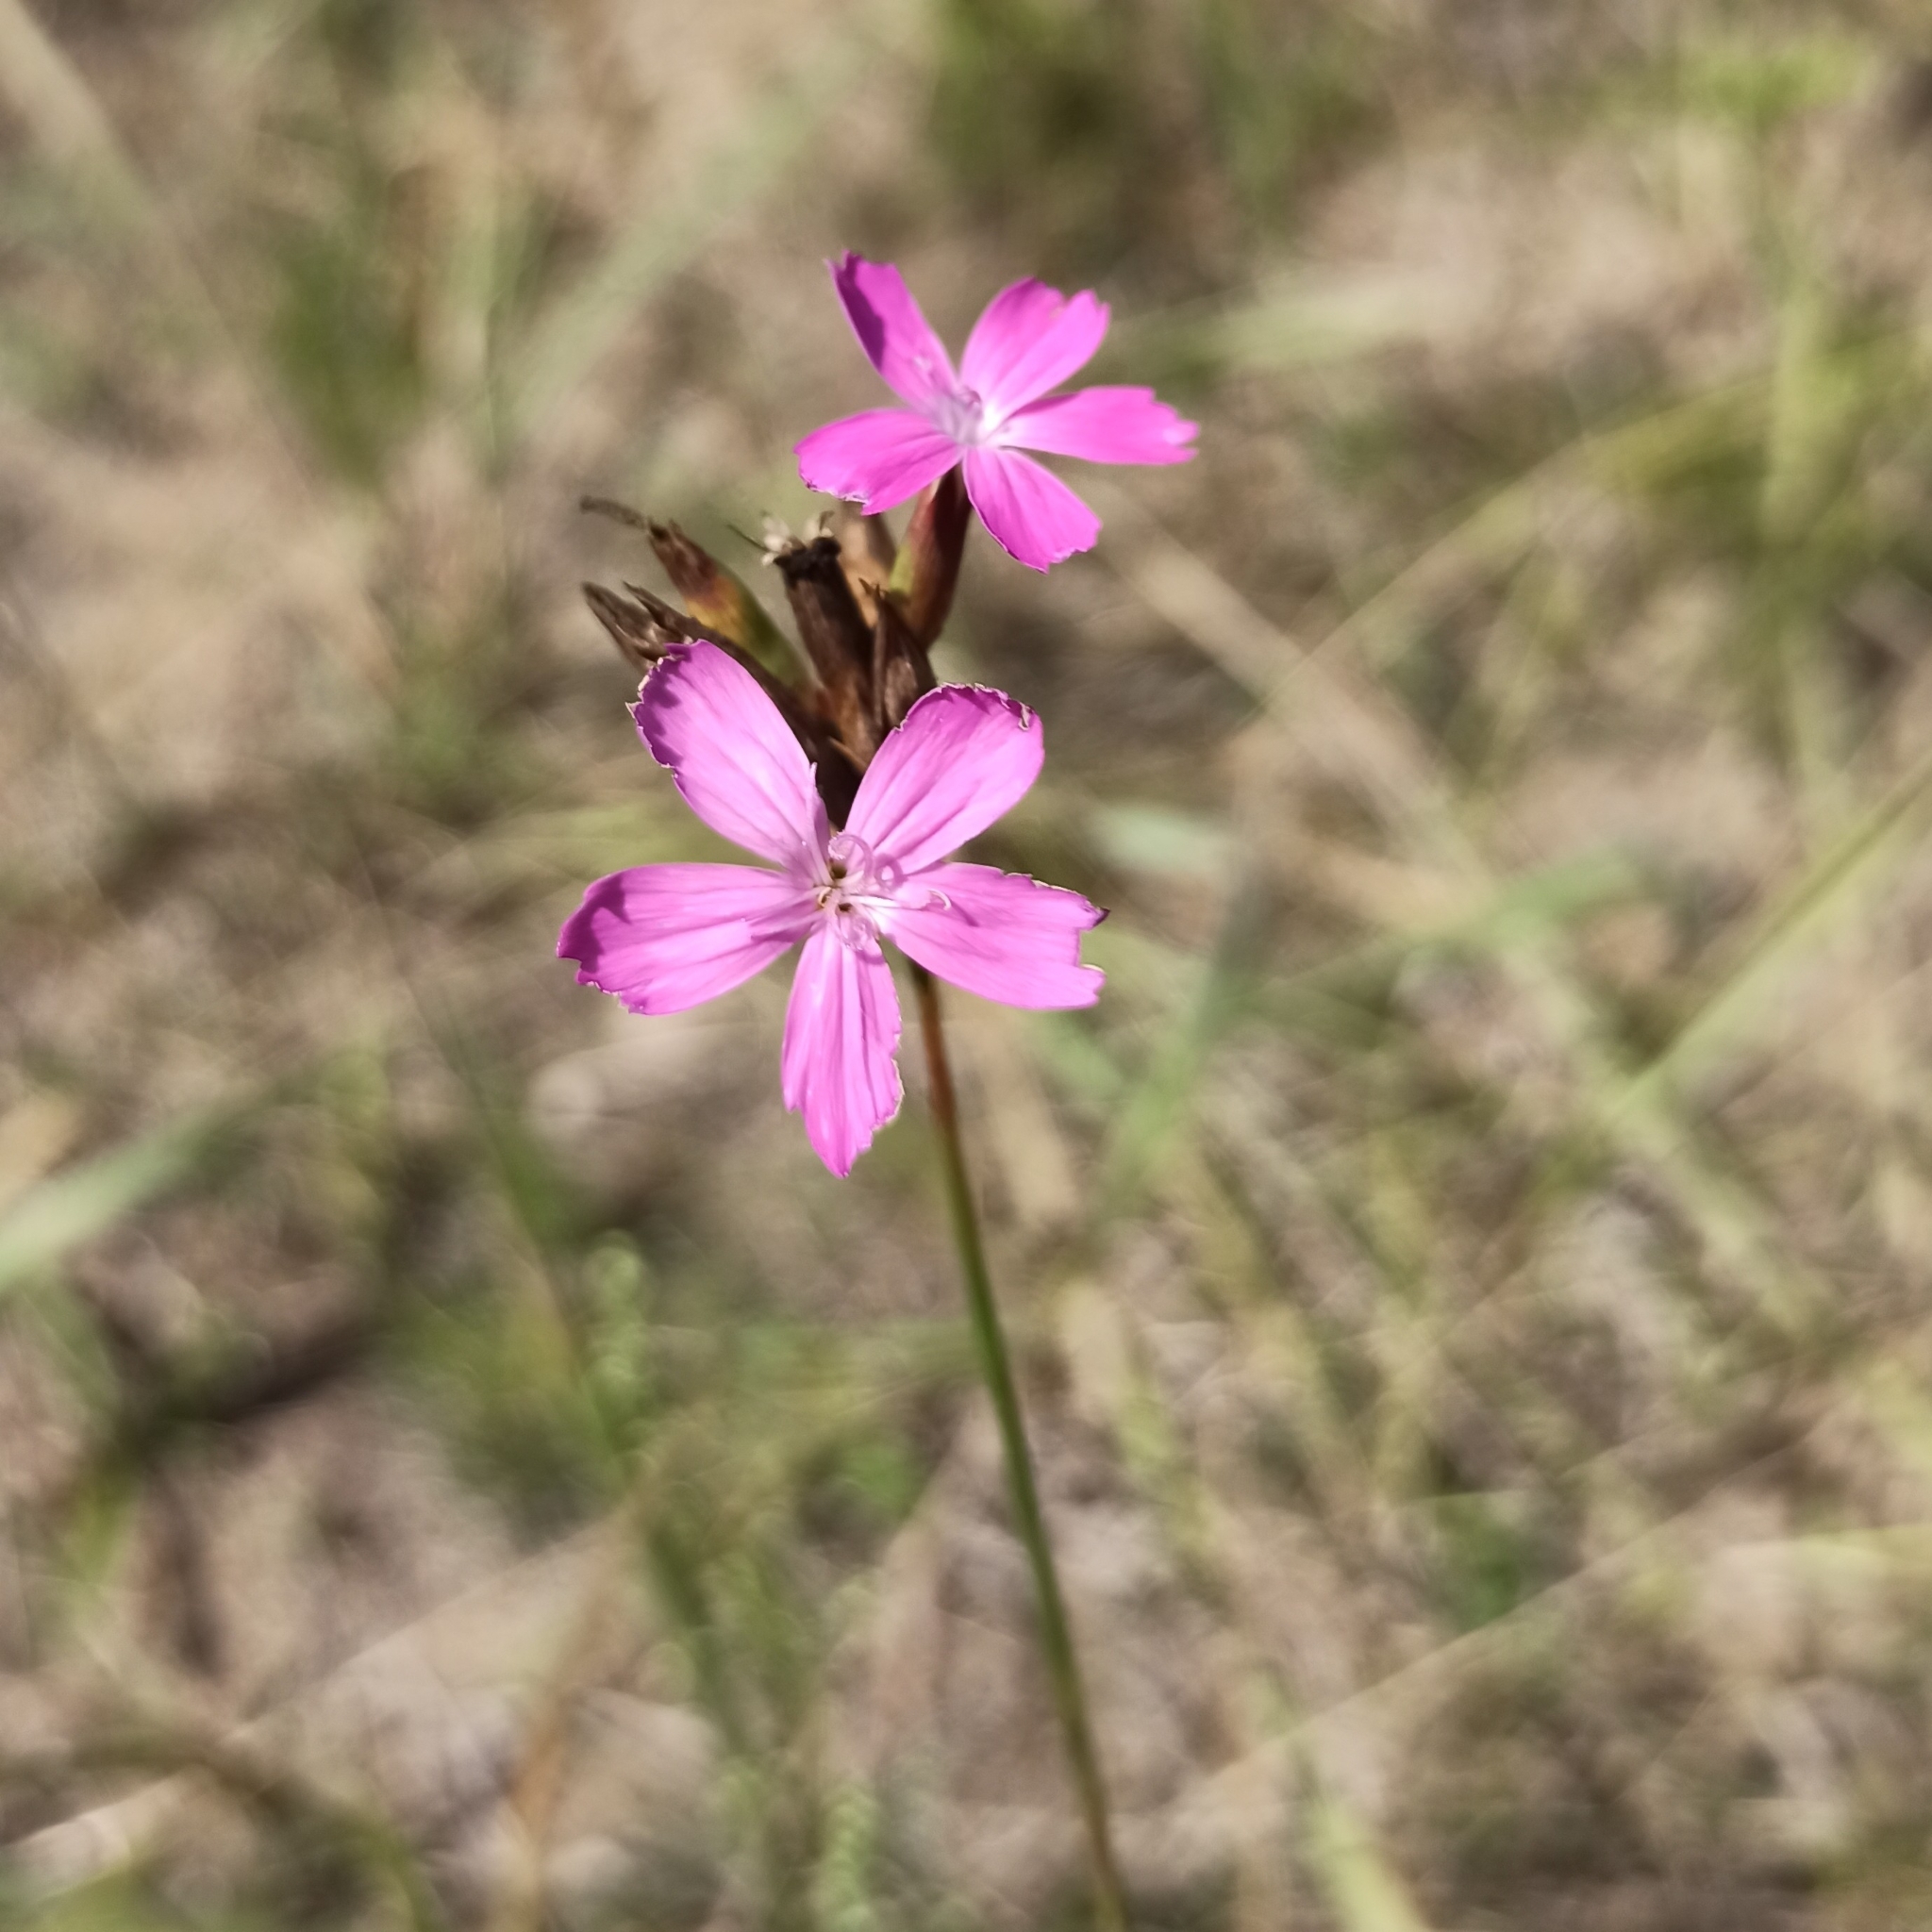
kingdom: Plantae
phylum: Tracheophyta
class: Magnoliopsida
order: Caryophyllales
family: Caryophyllaceae
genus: Dianthus
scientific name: Dianthus borbasii
